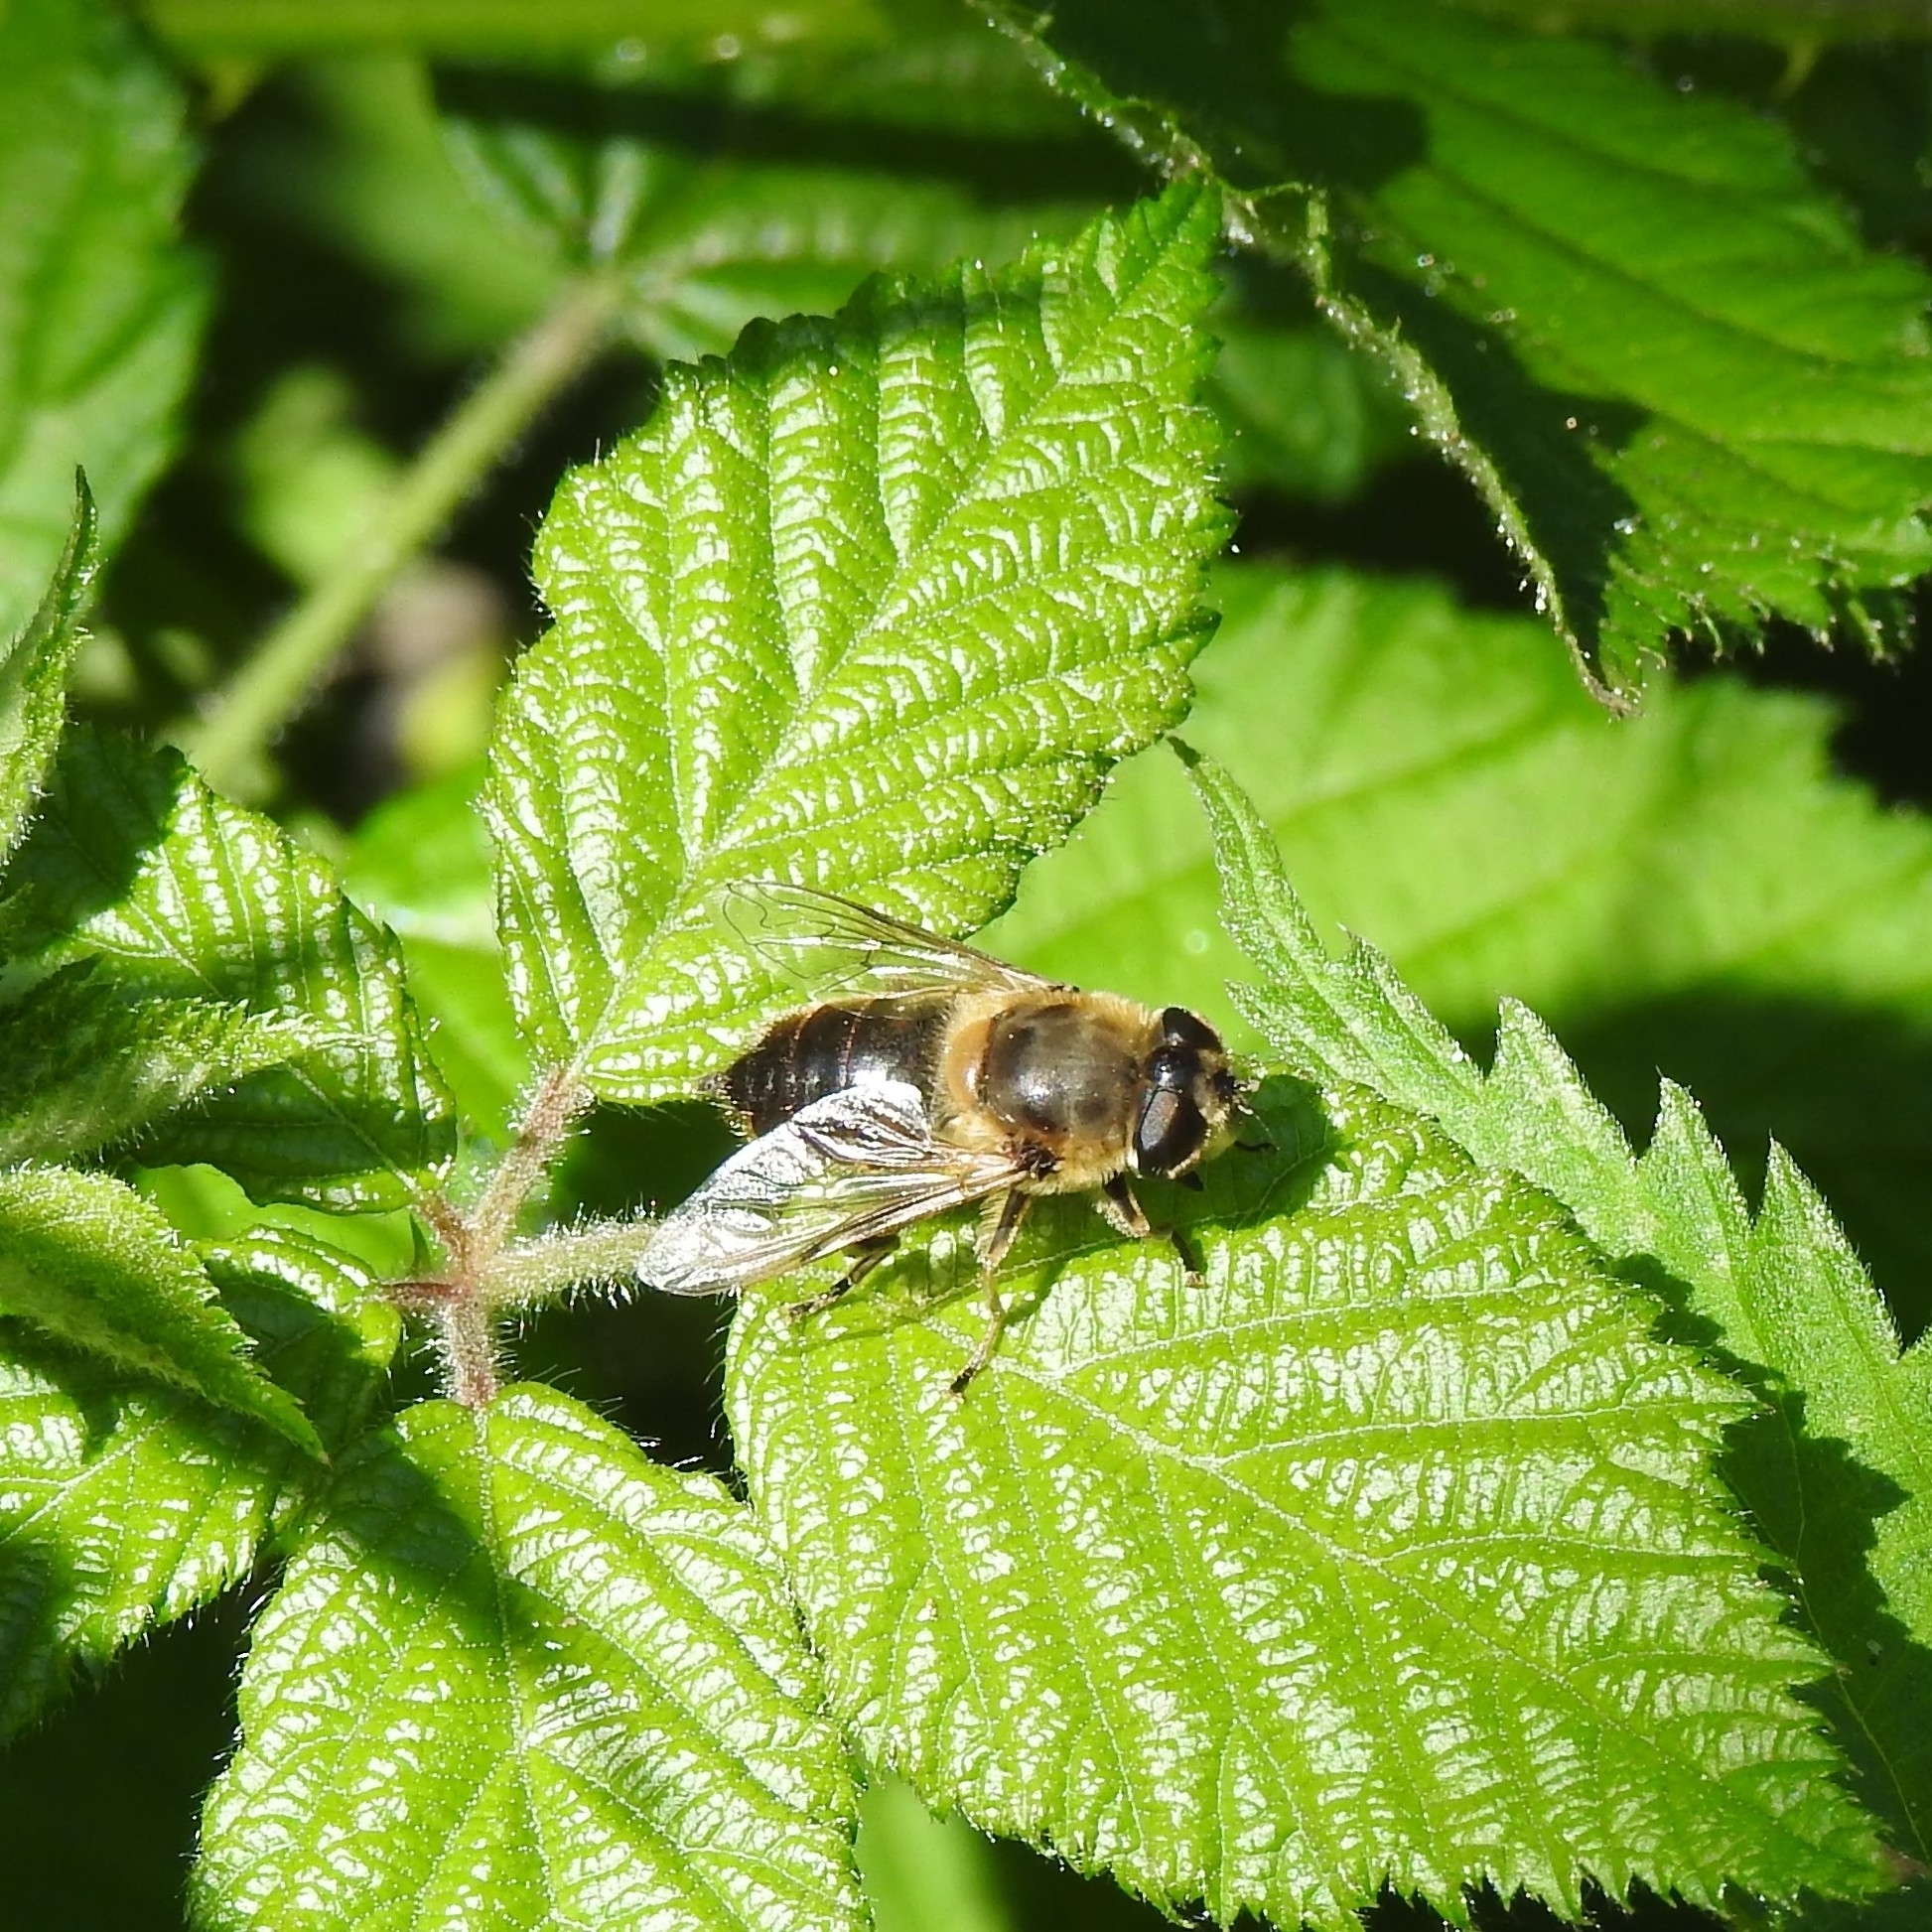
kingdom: Animalia
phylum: Arthropoda
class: Insecta
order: Diptera
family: Syrphidae
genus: Eristalis
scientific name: Eristalis tenax
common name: Drone fly
